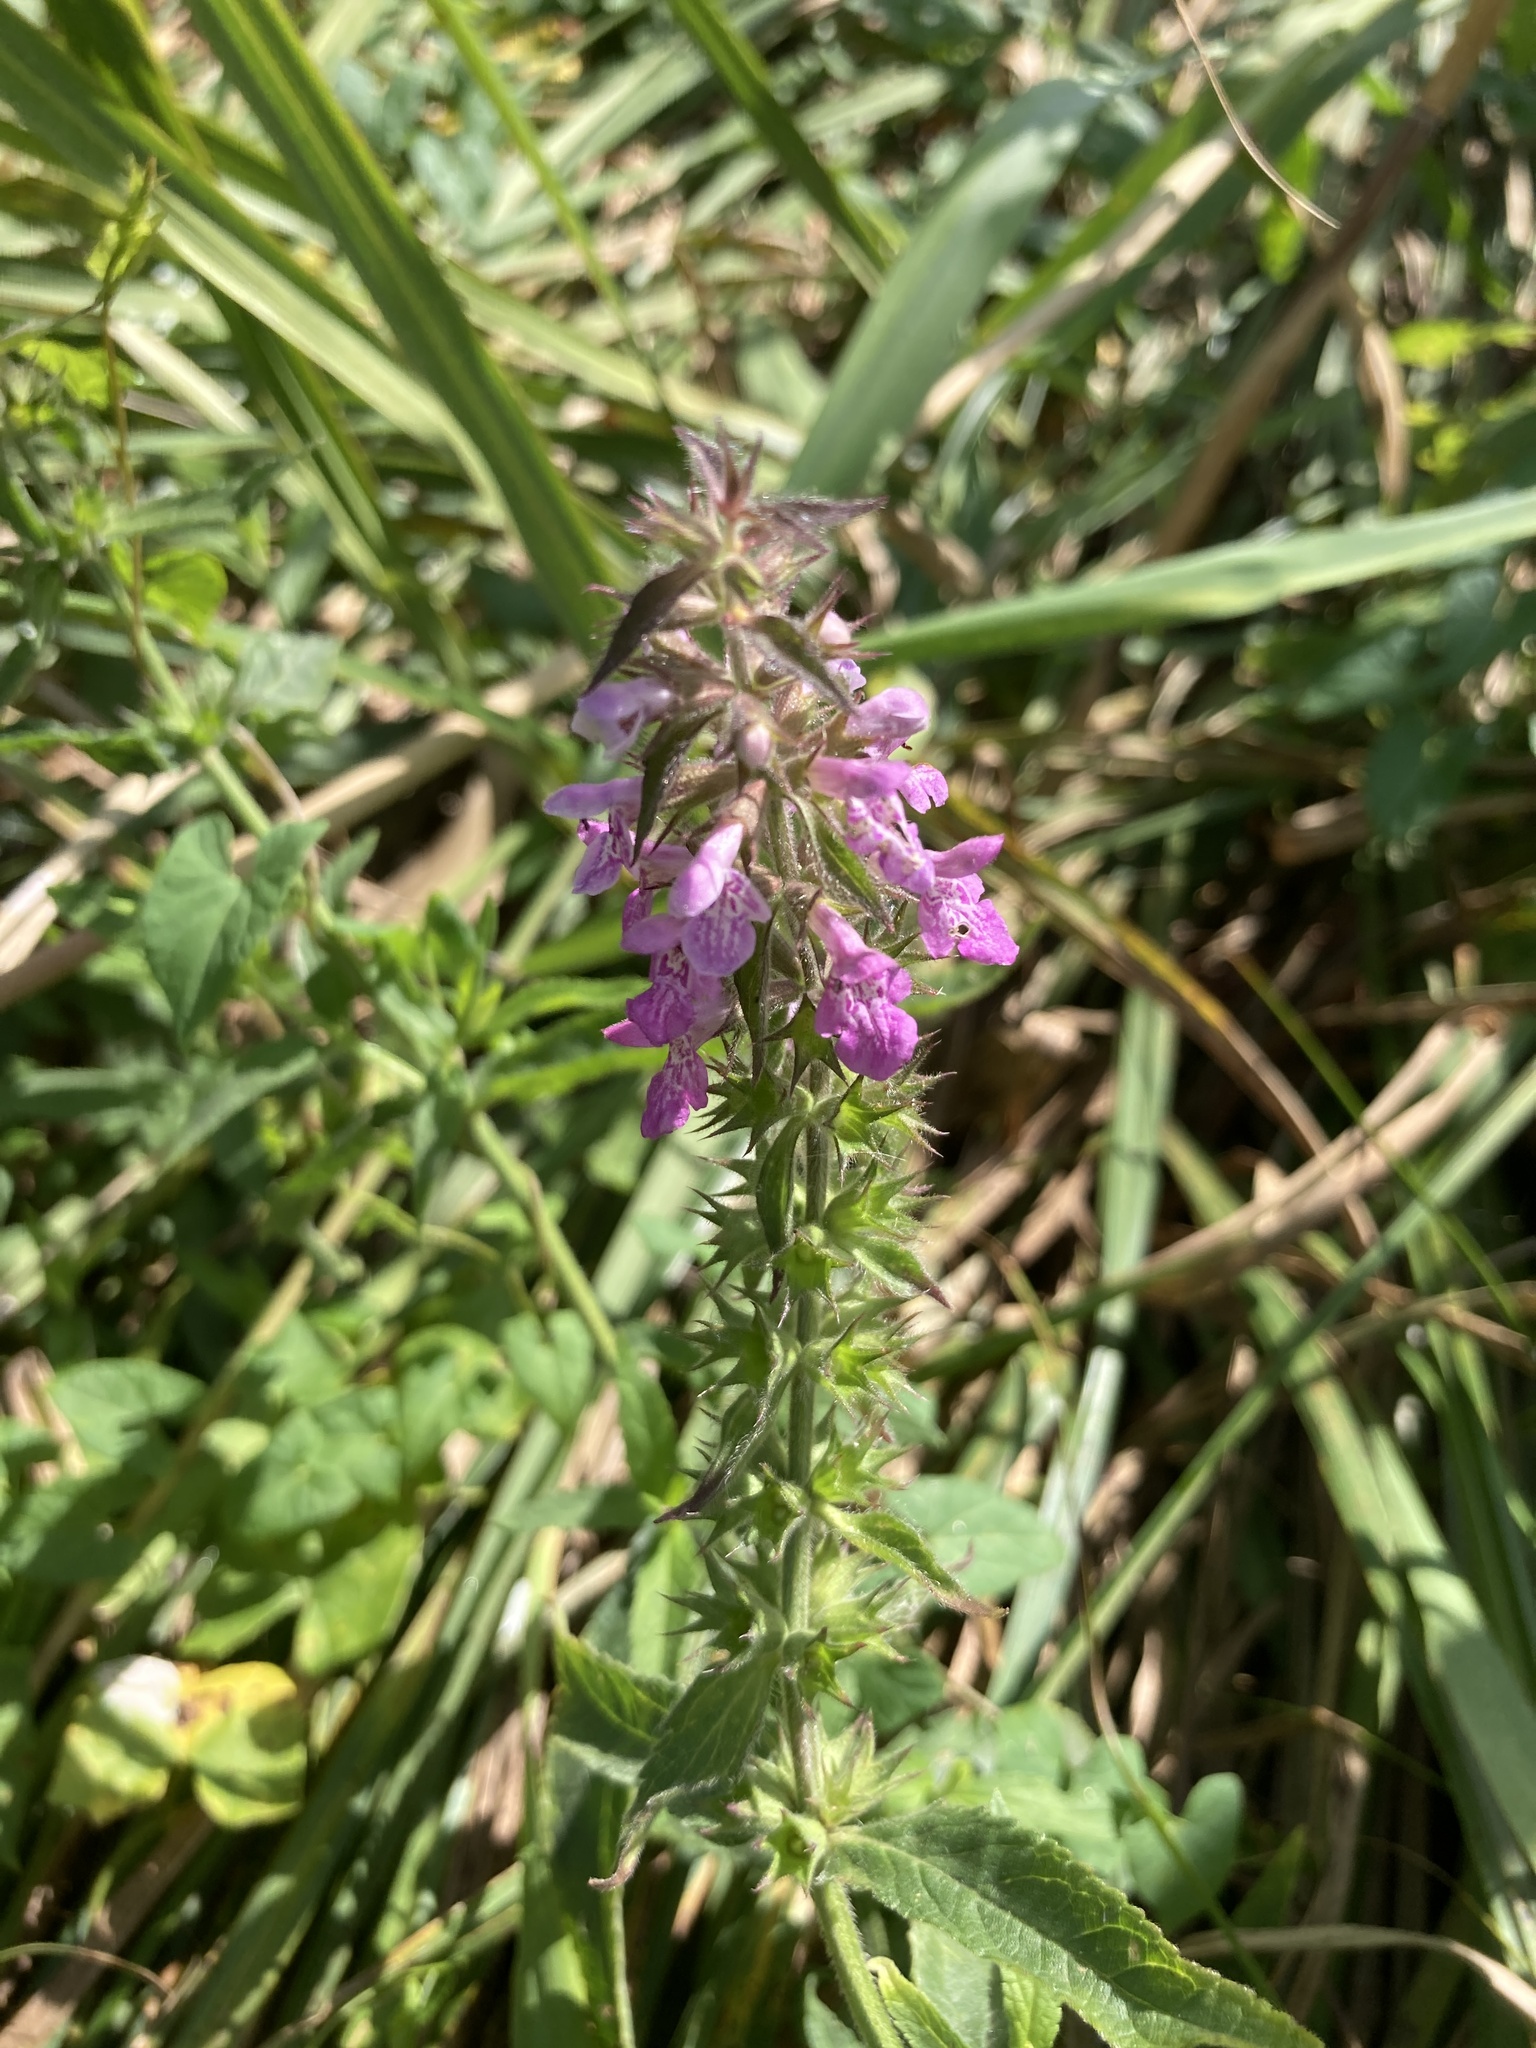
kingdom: Plantae
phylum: Tracheophyta
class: Magnoliopsida
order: Lamiales
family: Lamiaceae
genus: Stachys
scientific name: Stachys palustris
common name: Marsh woundwort
